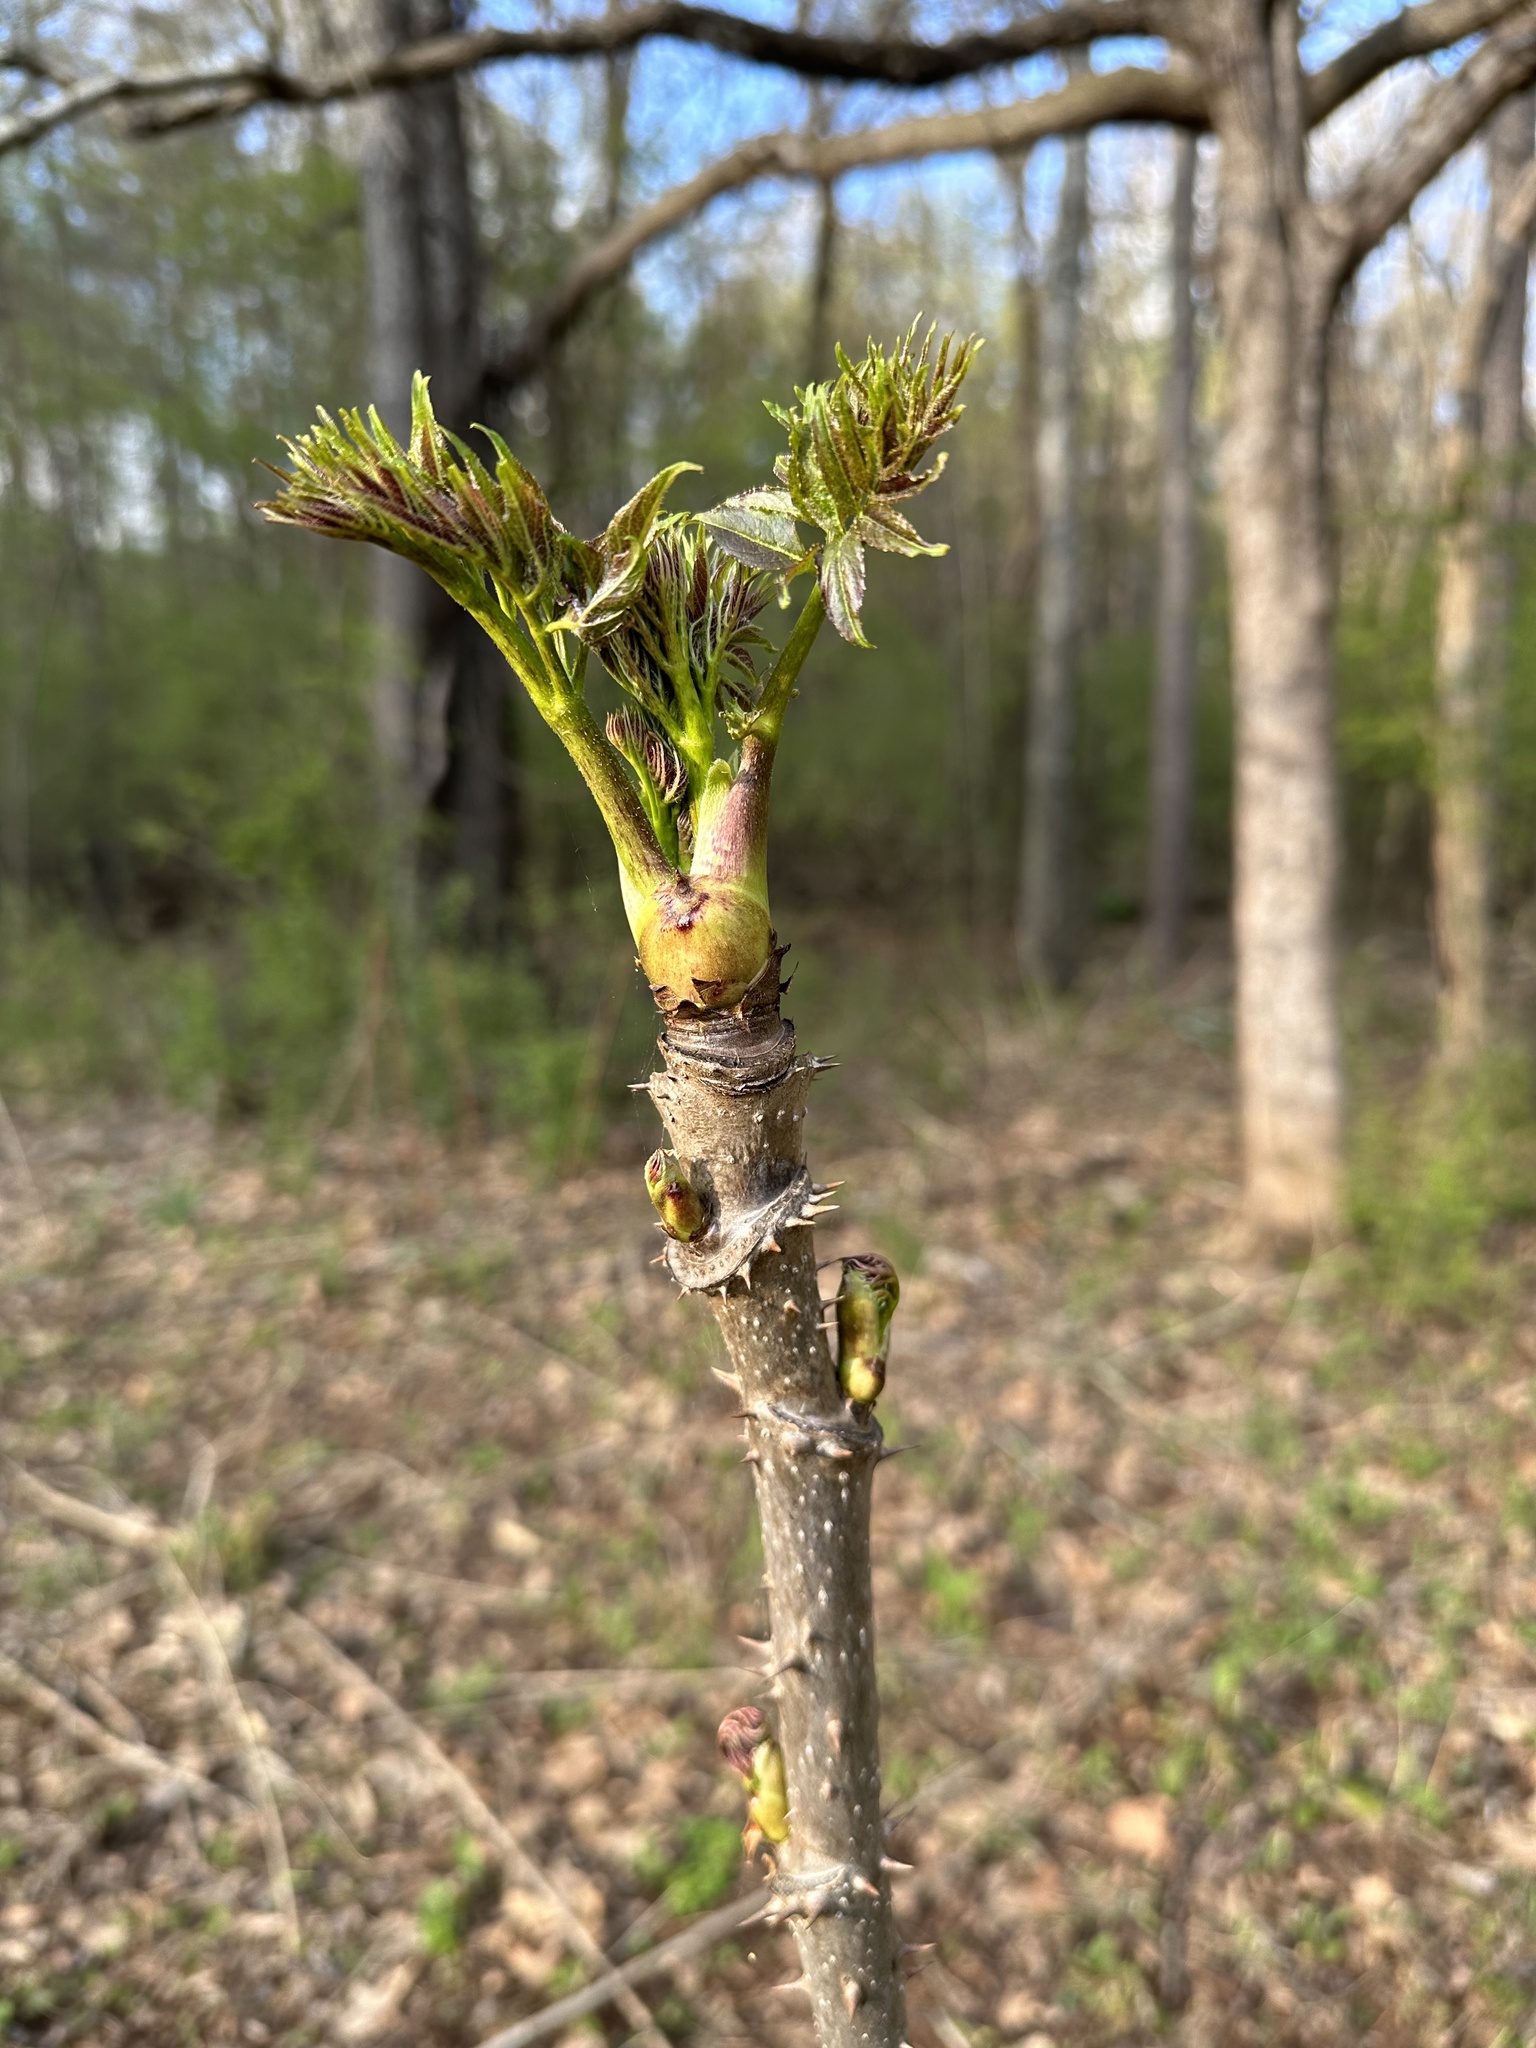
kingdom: Plantae
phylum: Tracheophyta
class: Magnoliopsida
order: Apiales
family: Araliaceae
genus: Aralia
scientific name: Aralia spinosa
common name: Hercules'-club
